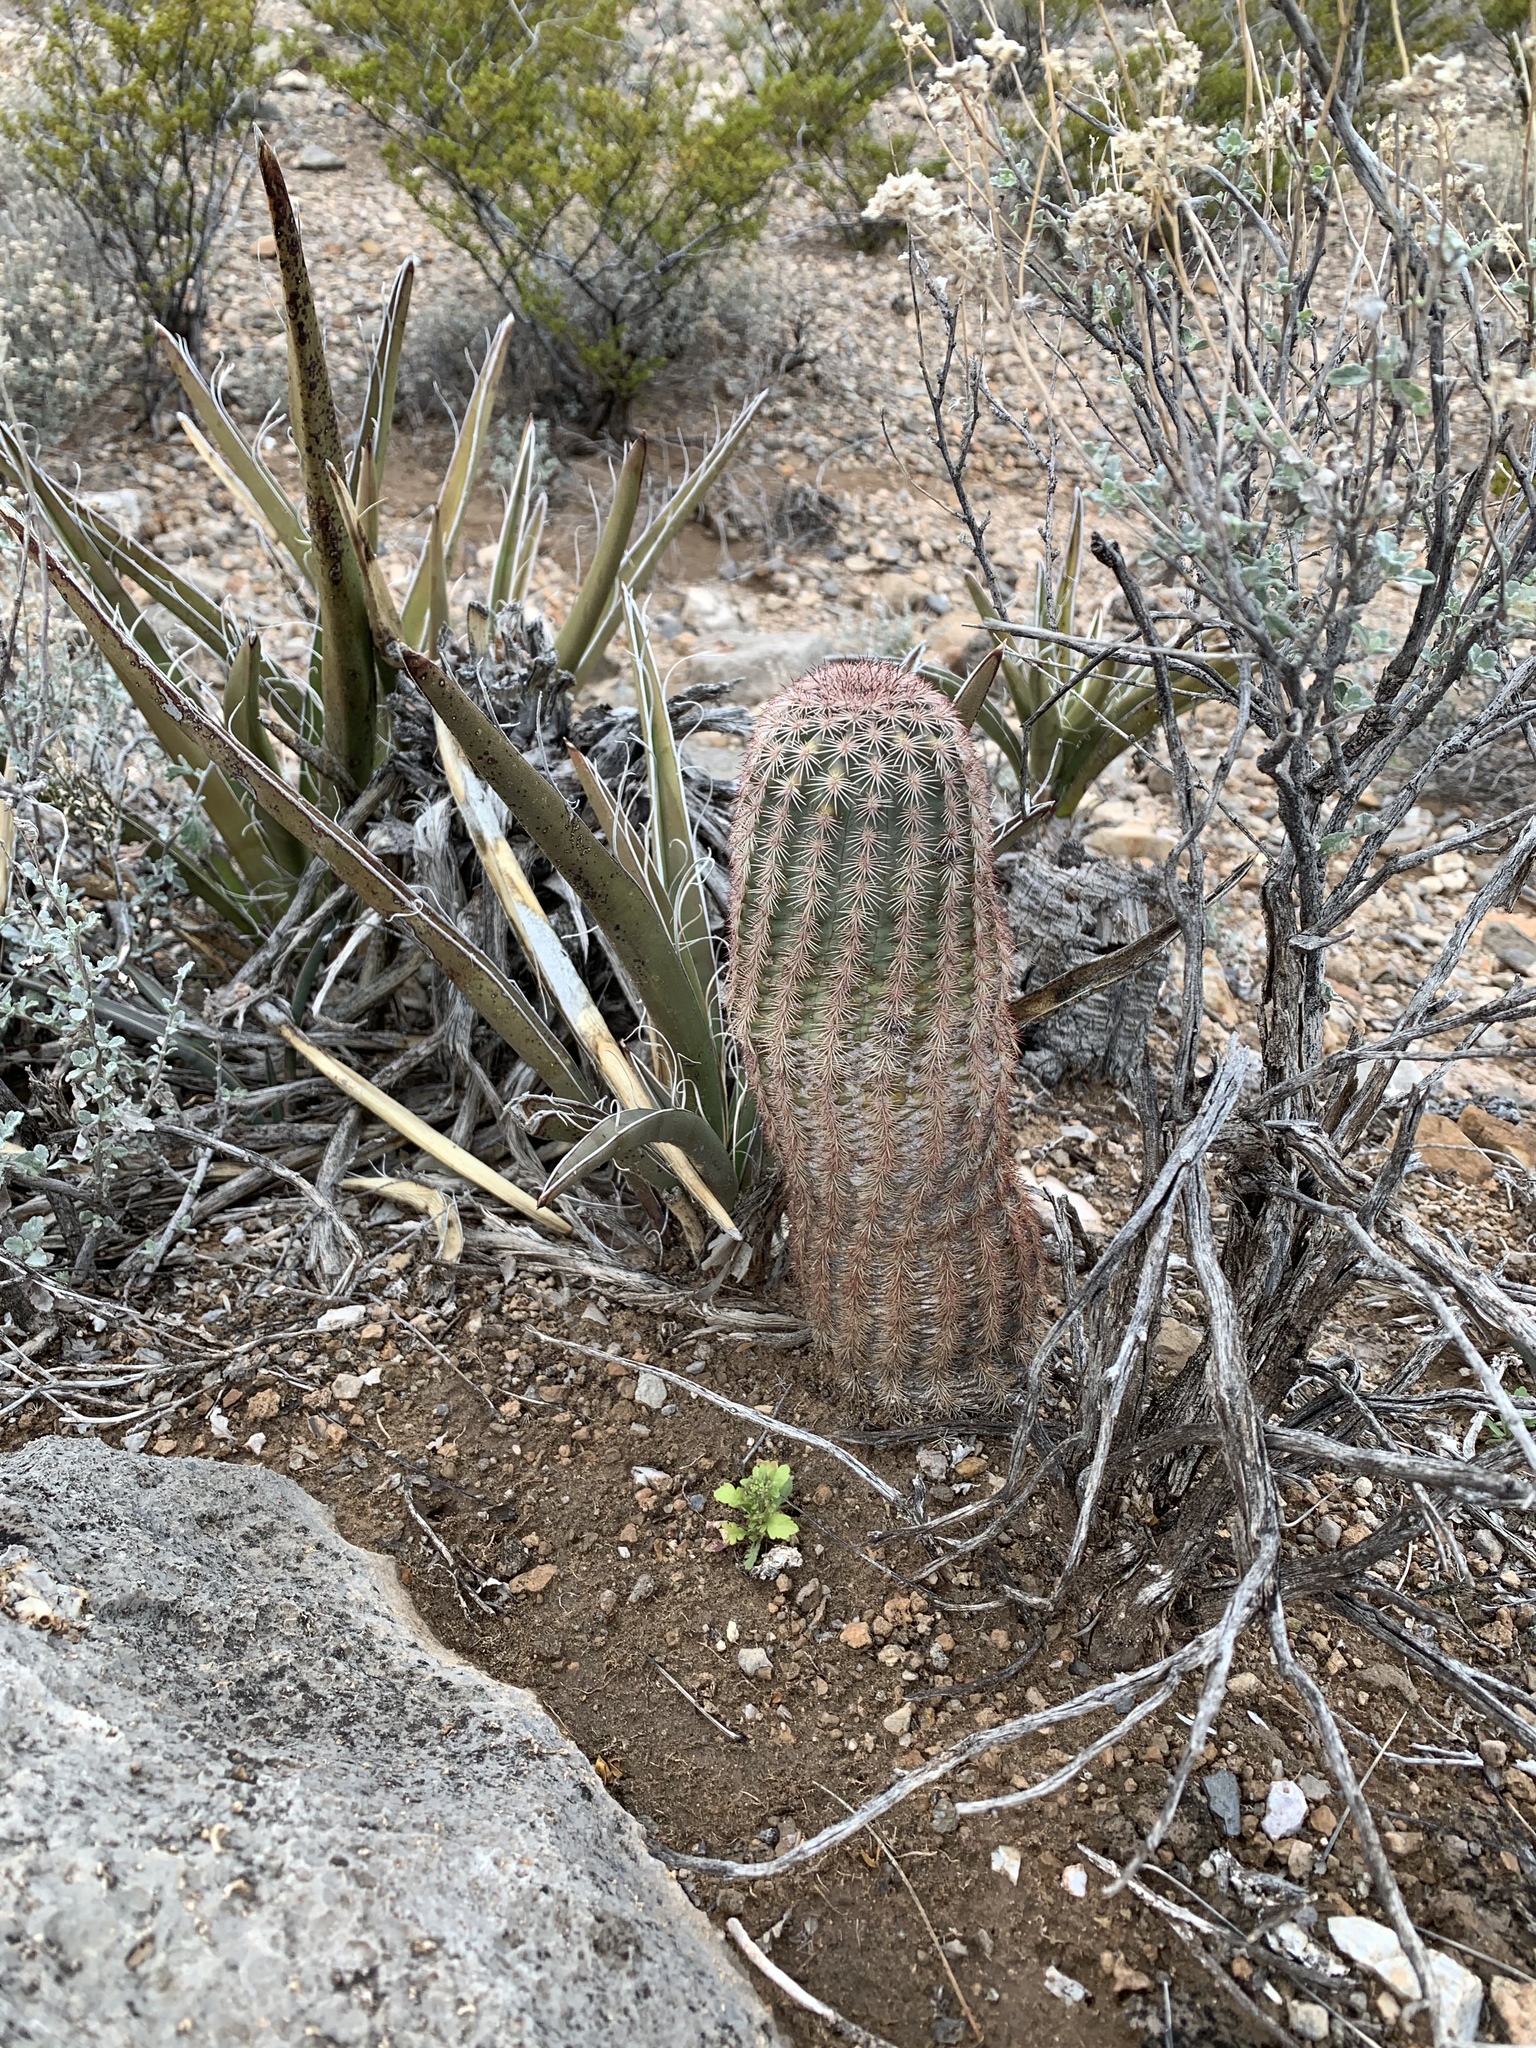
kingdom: Plantae
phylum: Tracheophyta
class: Magnoliopsida
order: Caryophyllales
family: Cactaceae
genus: Echinocereus
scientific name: Echinocereus dasyacanthus
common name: Spiny hedgehog cactus
